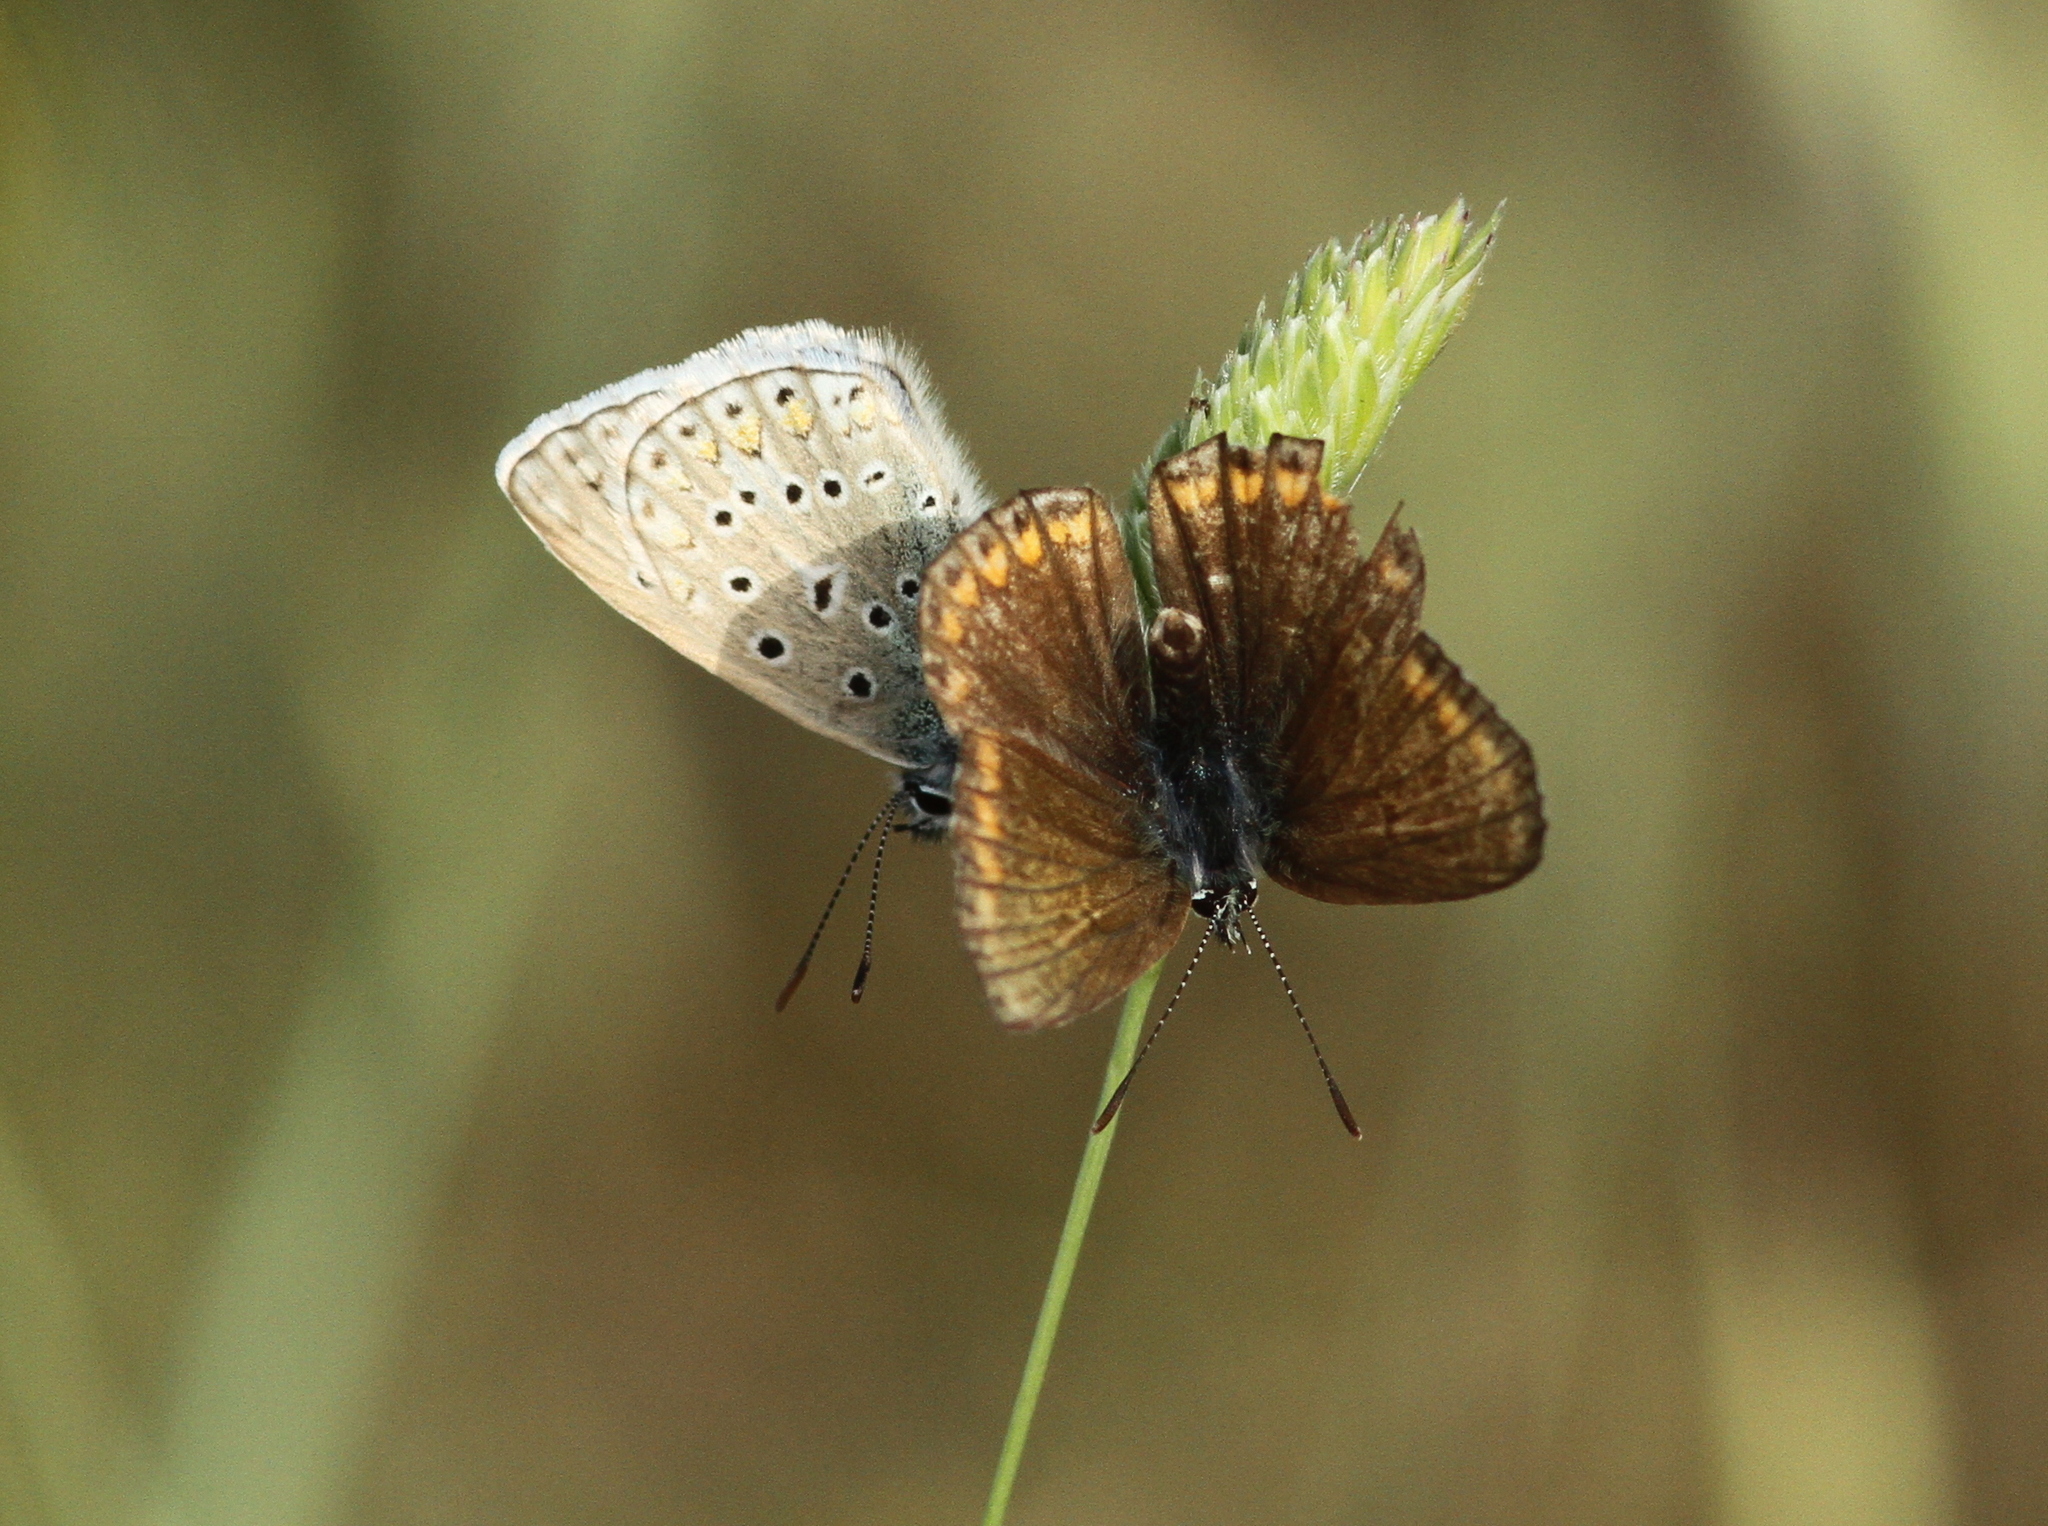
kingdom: Animalia
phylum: Arthropoda
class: Insecta
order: Lepidoptera
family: Lycaenidae
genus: Polyommatus
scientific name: Polyommatus icarus
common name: Common blue
